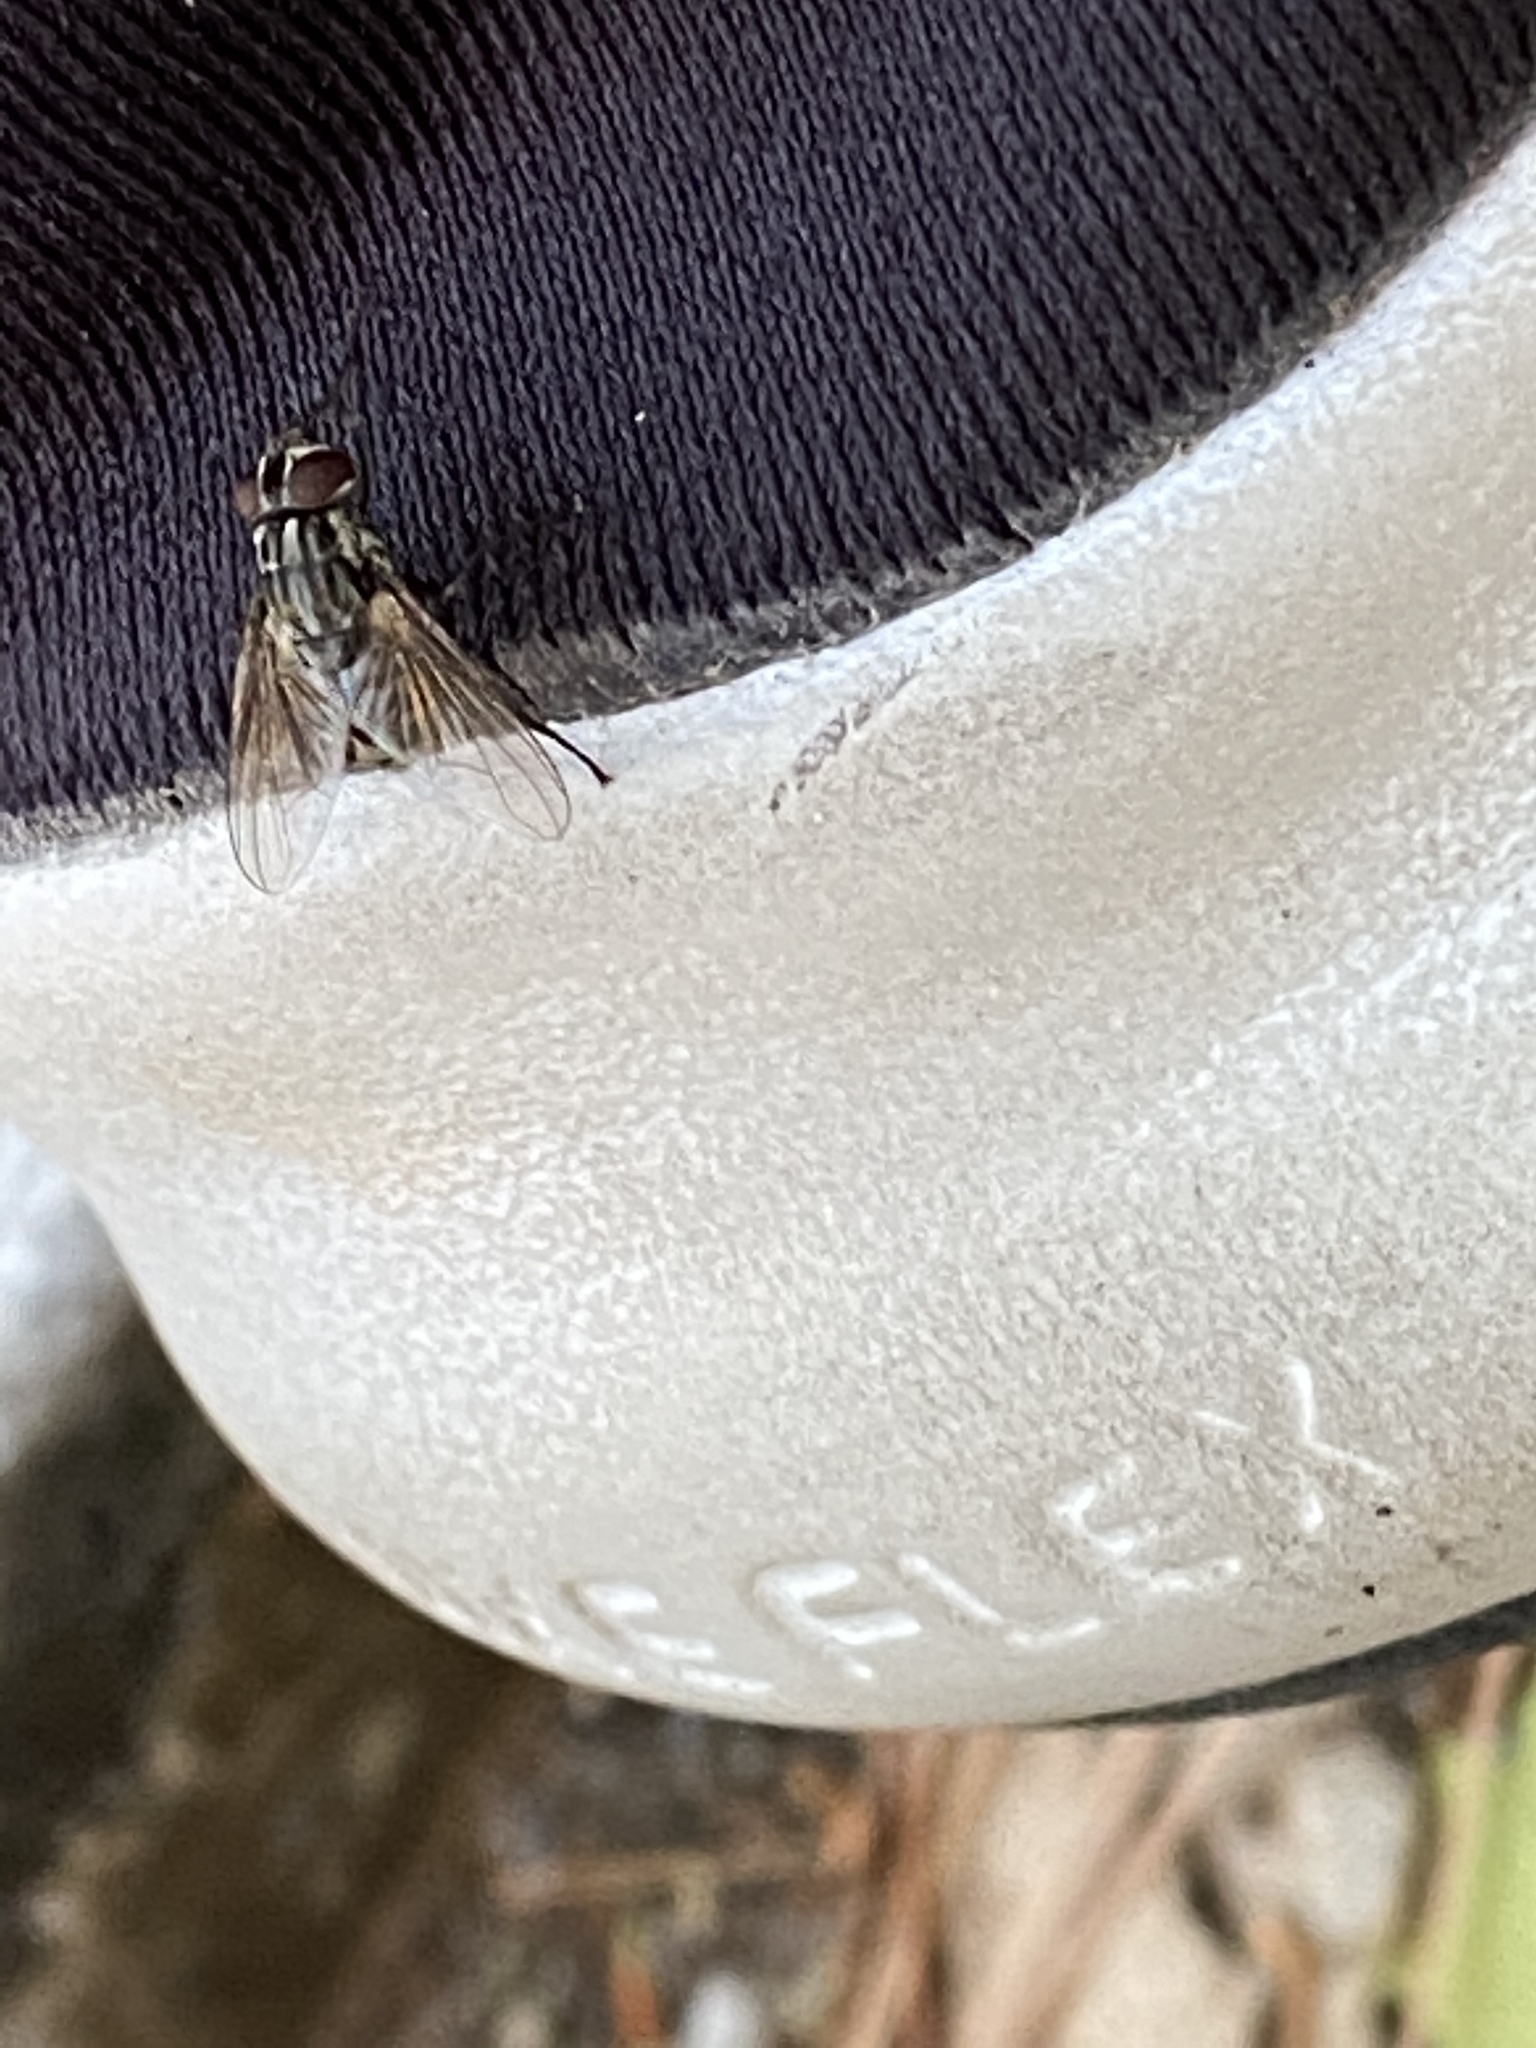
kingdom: Animalia
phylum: Arthropoda
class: Insecta
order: Diptera
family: Muscidae
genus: Stomoxys
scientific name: Stomoxys calcitrans
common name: Stable fly
